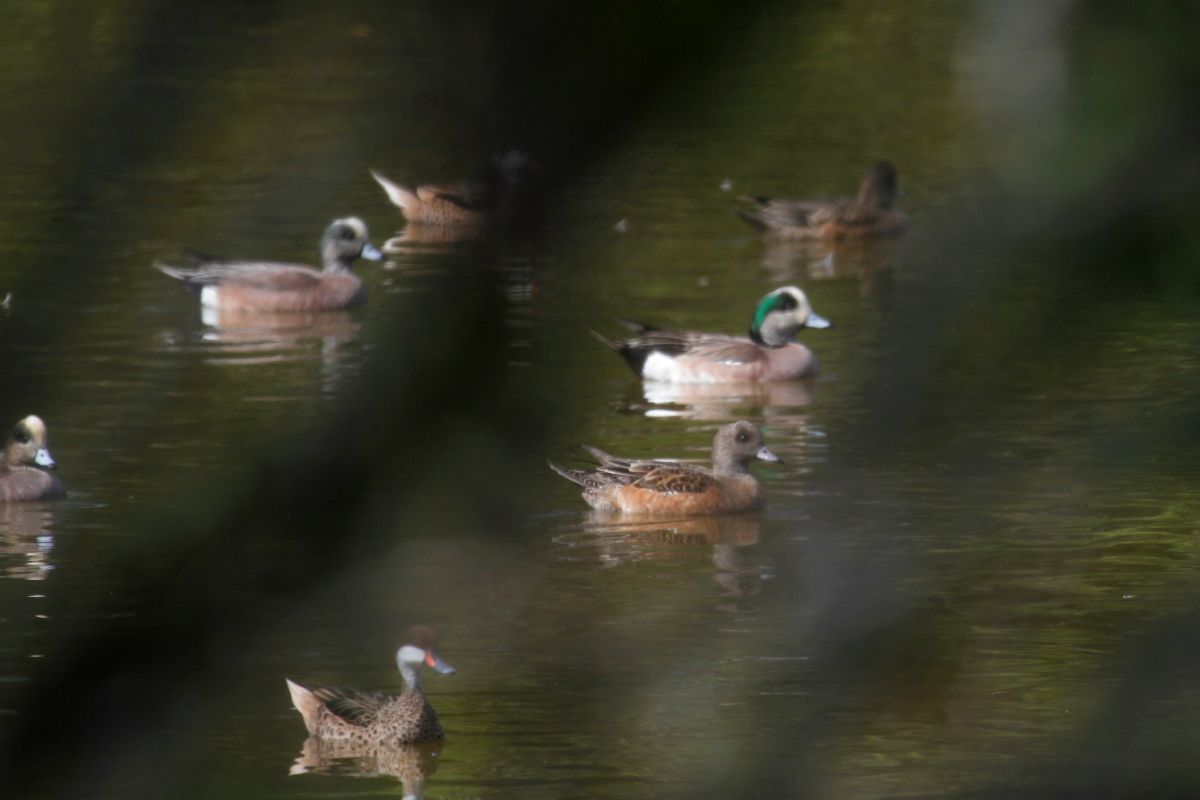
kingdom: Animalia
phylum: Chordata
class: Aves
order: Anseriformes
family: Anatidae
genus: Mareca
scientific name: Mareca americana
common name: American wigeon
